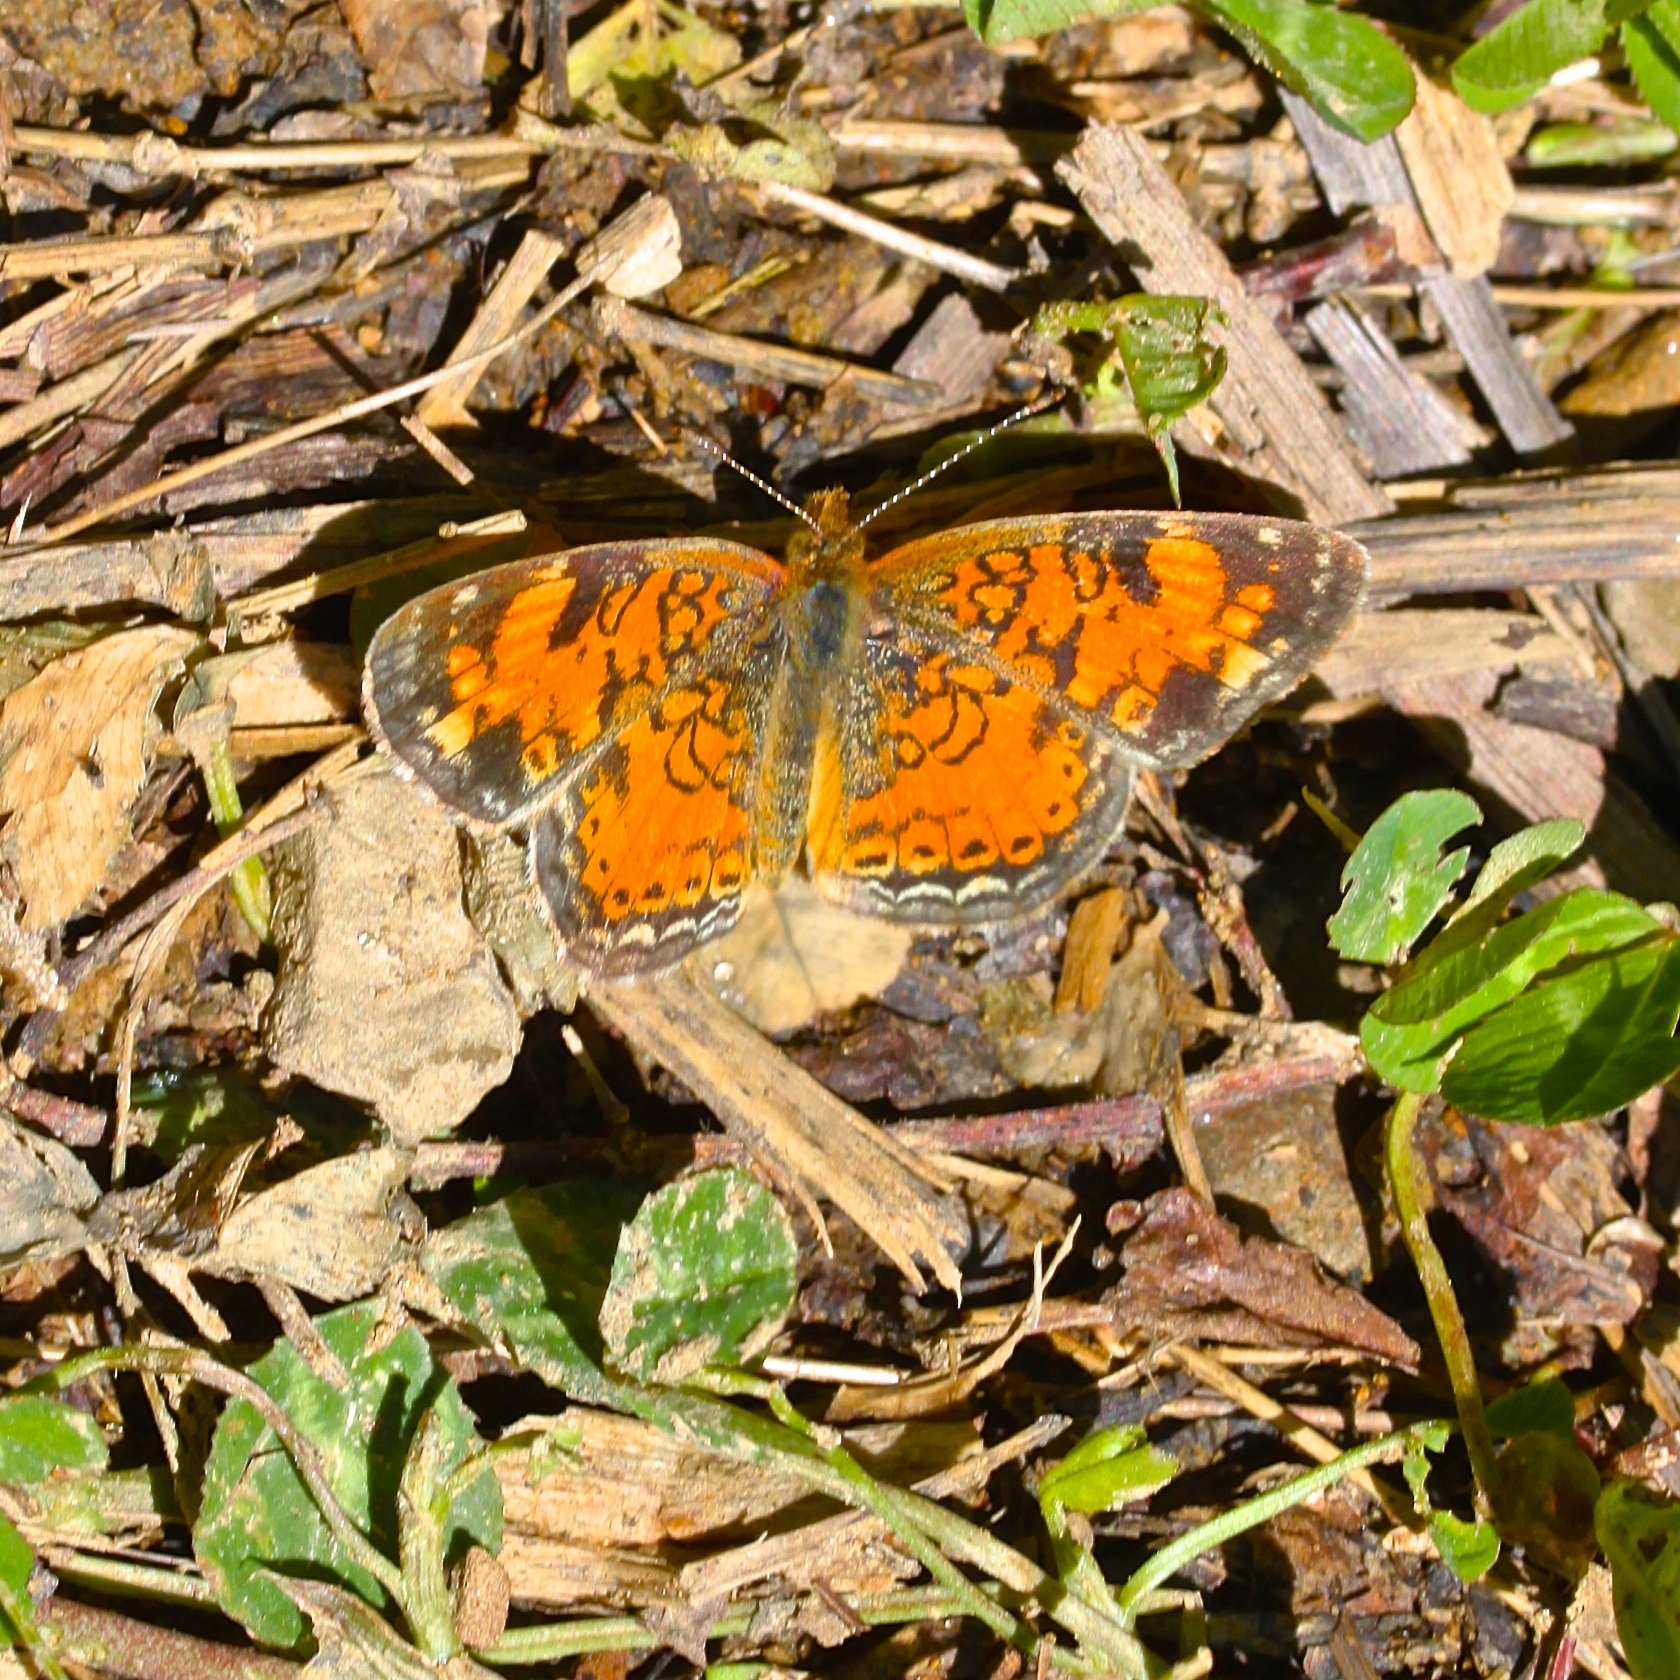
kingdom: Animalia
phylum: Arthropoda
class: Insecta
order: Lepidoptera
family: Nymphalidae
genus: Phyciodes
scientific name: Phyciodes tharos
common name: Pearl crescent
